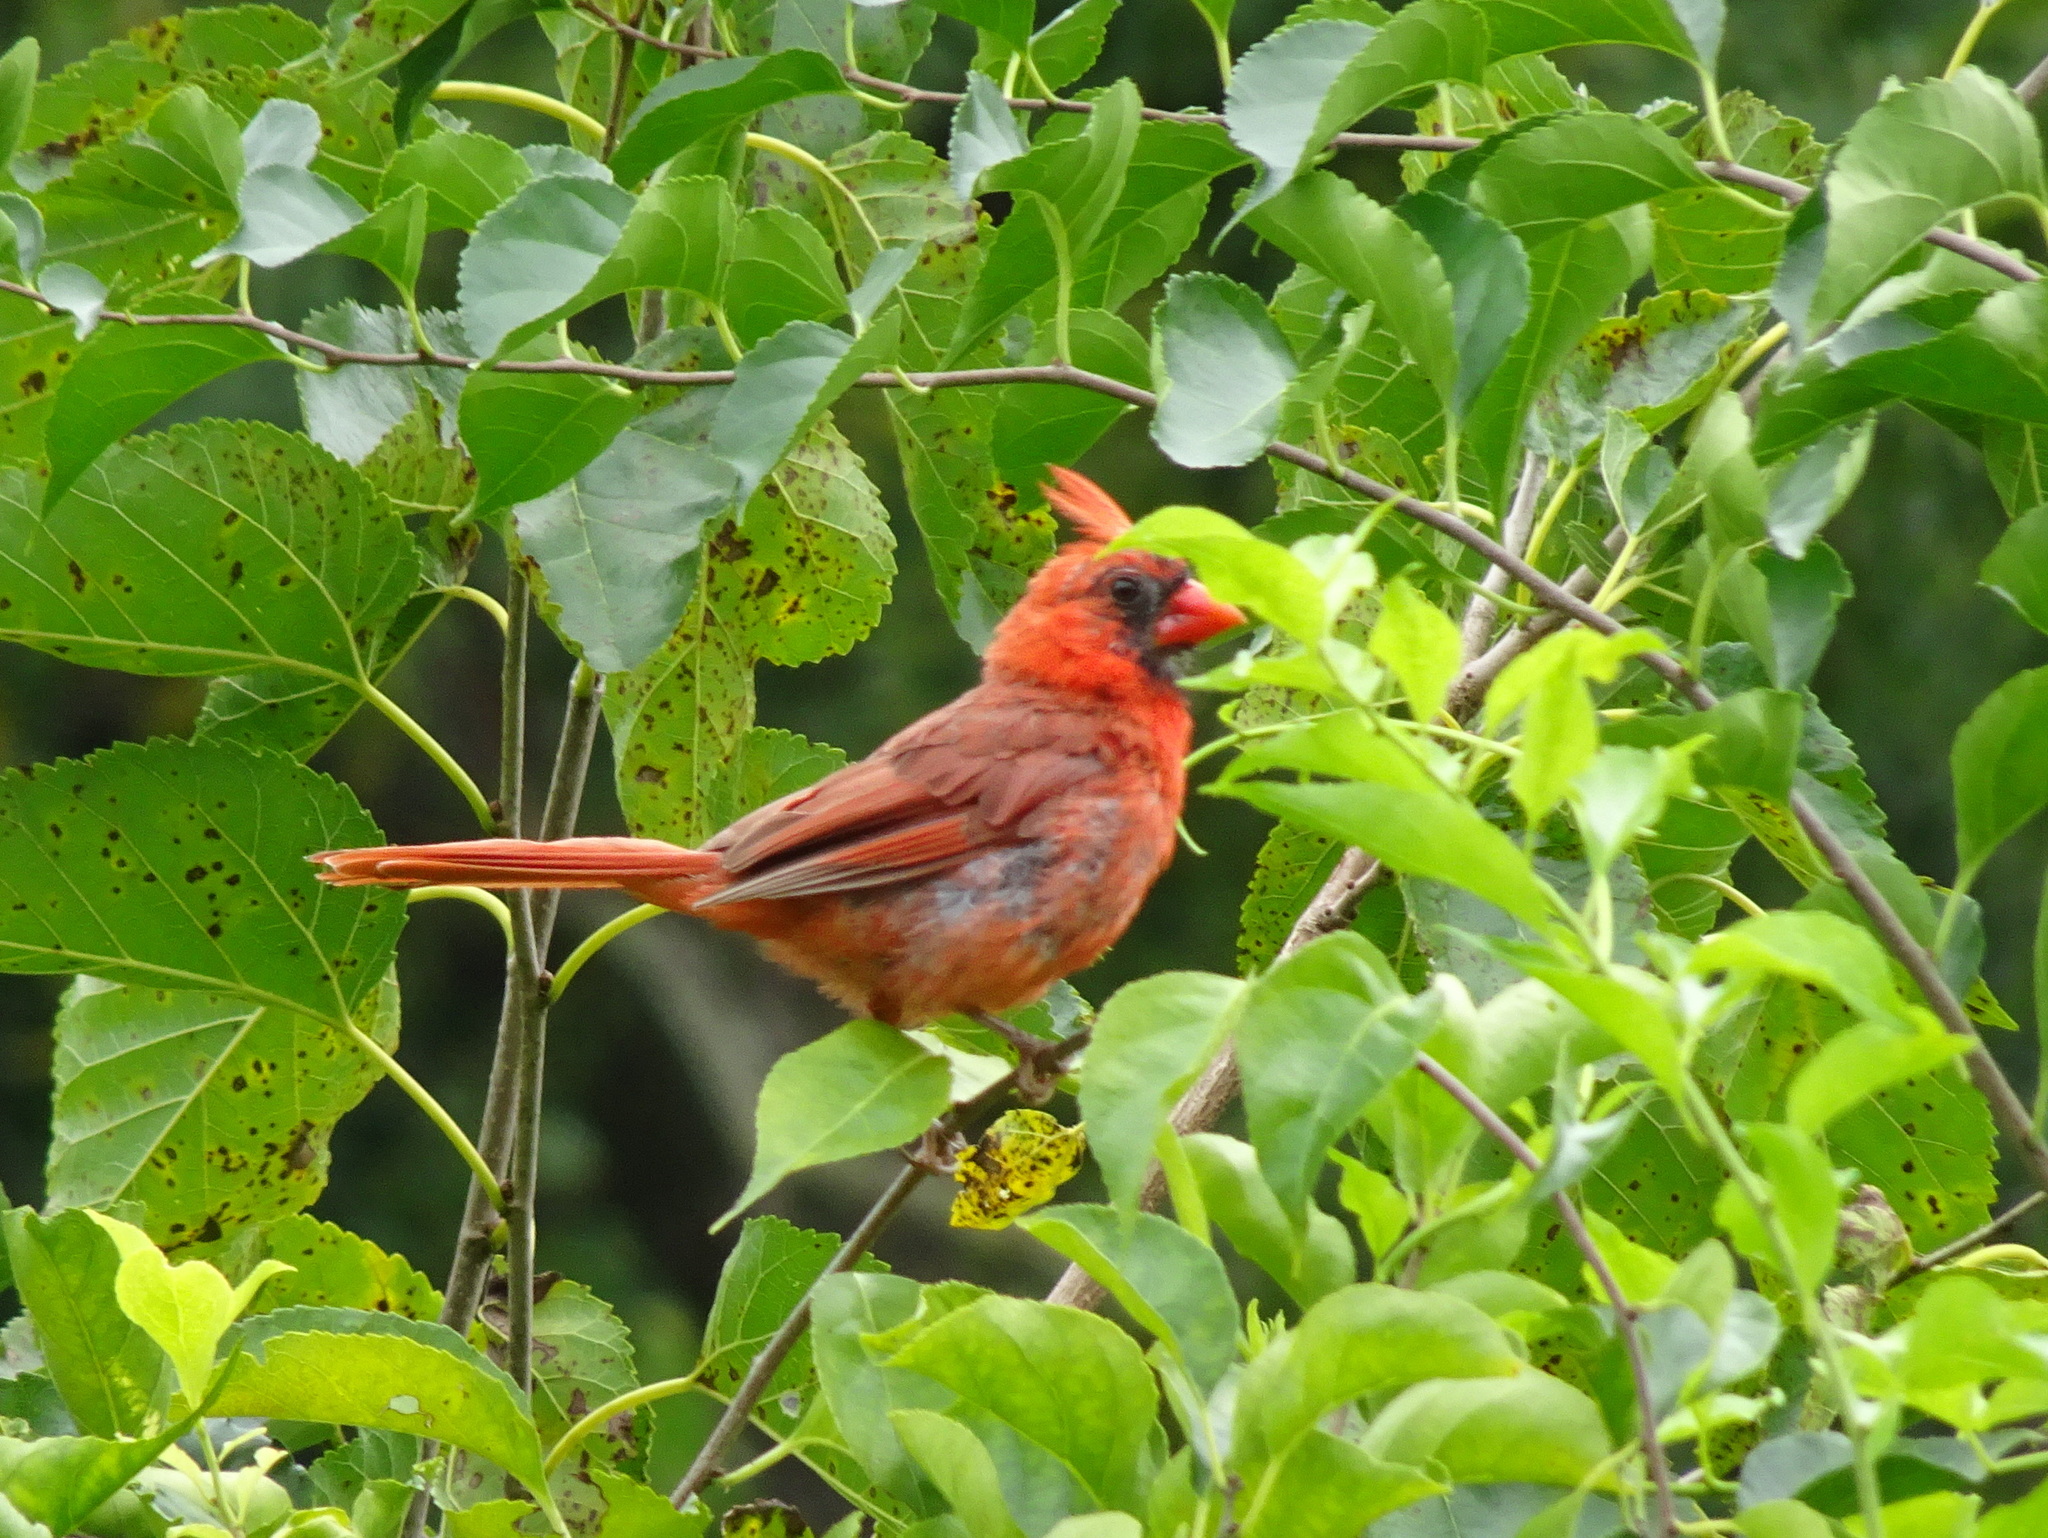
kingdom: Animalia
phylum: Chordata
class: Aves
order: Passeriformes
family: Cardinalidae
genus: Cardinalis
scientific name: Cardinalis cardinalis
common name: Northern cardinal
